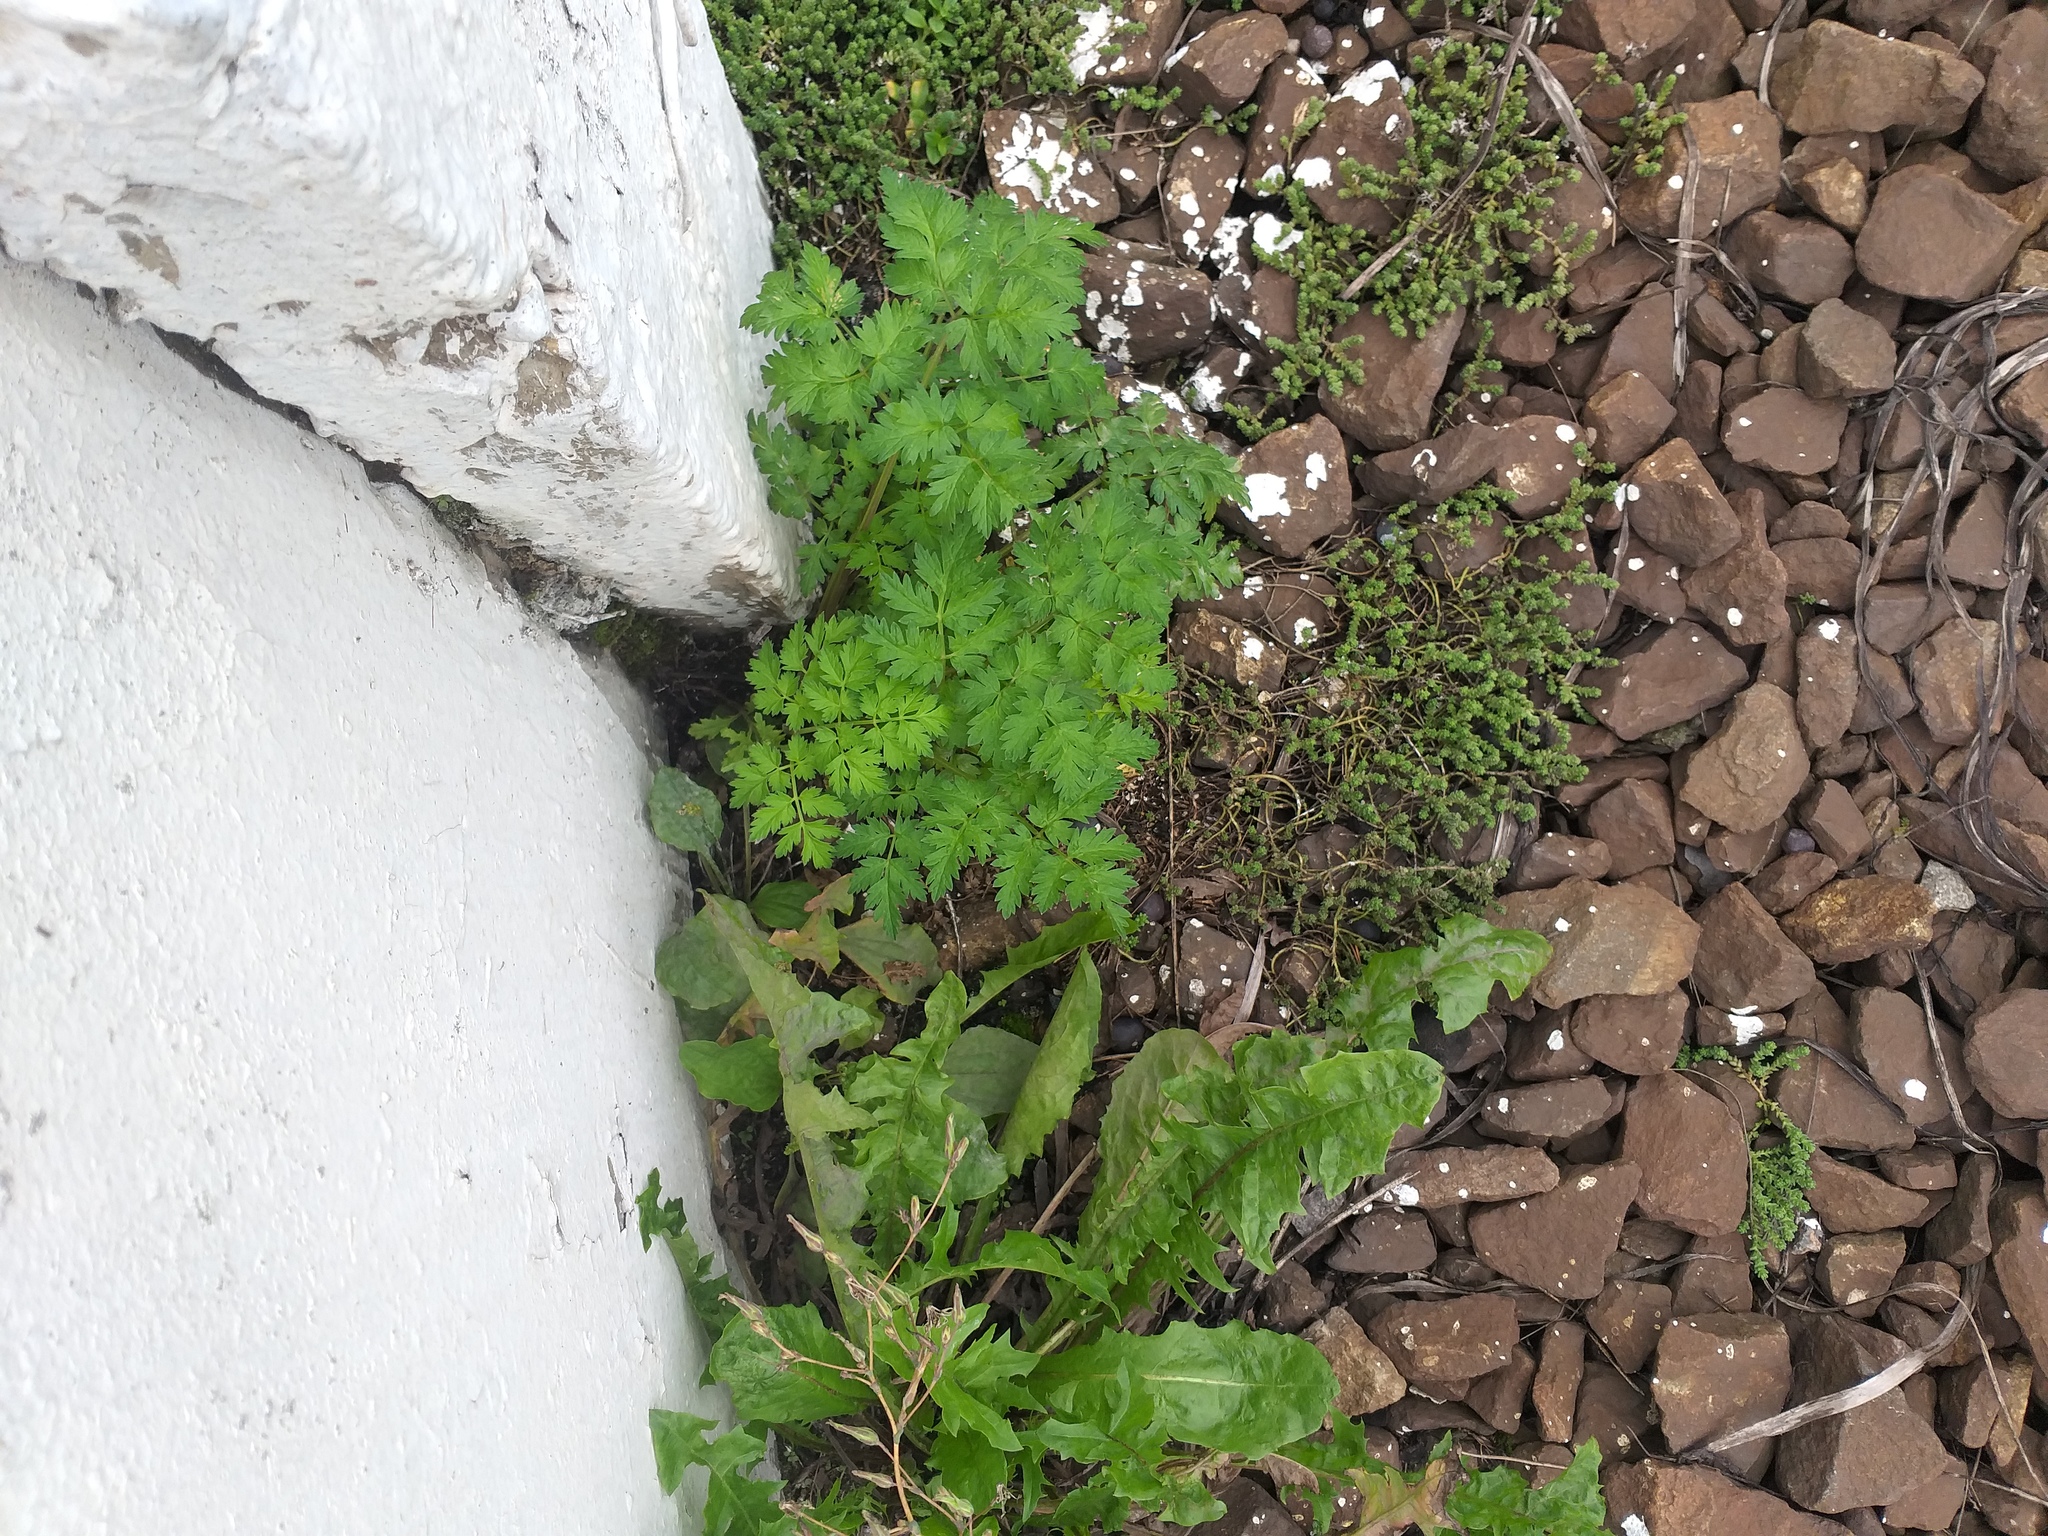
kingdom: Plantae
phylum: Tracheophyta
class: Magnoliopsida
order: Apiales
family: Apiaceae
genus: Anthriscus
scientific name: Anthriscus sylvestris
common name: Cow parsley
